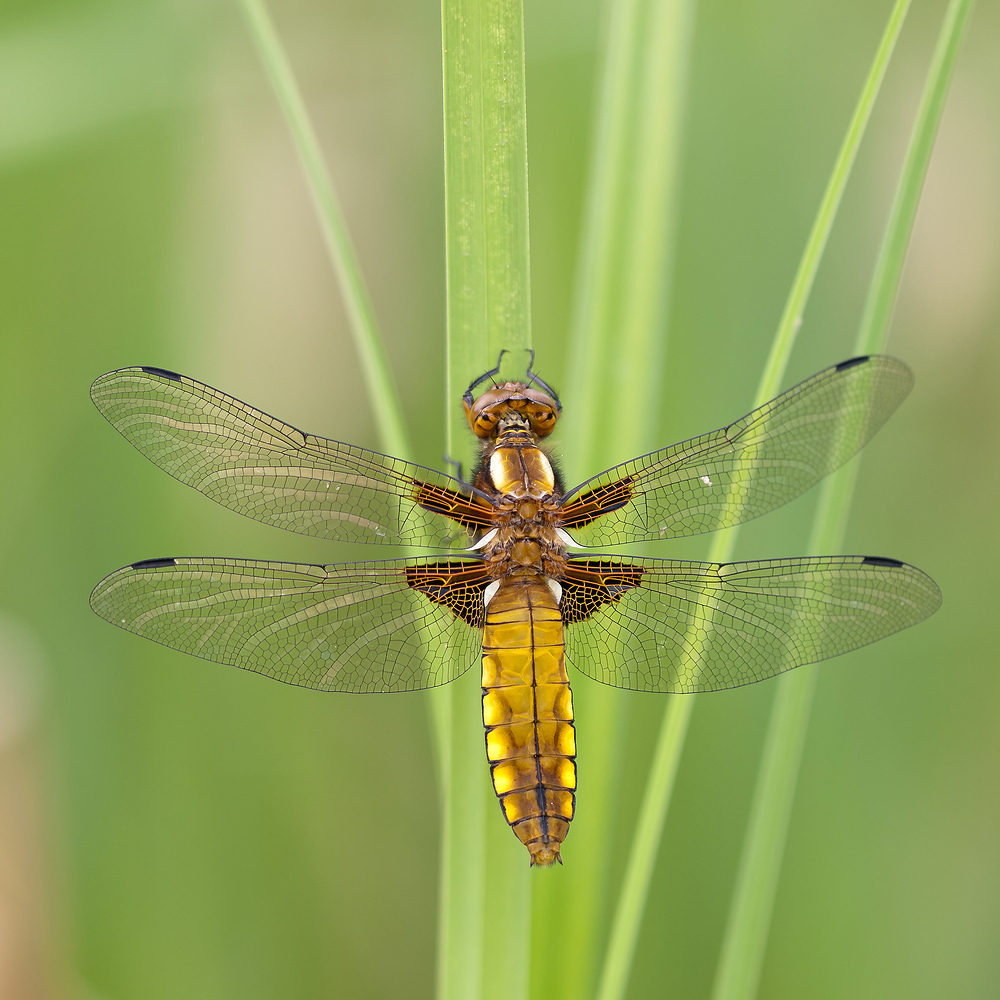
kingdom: Animalia
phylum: Arthropoda
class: Insecta
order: Odonata
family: Libellulidae
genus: Libellula
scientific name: Libellula depressa
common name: Broad-bodied chaser
